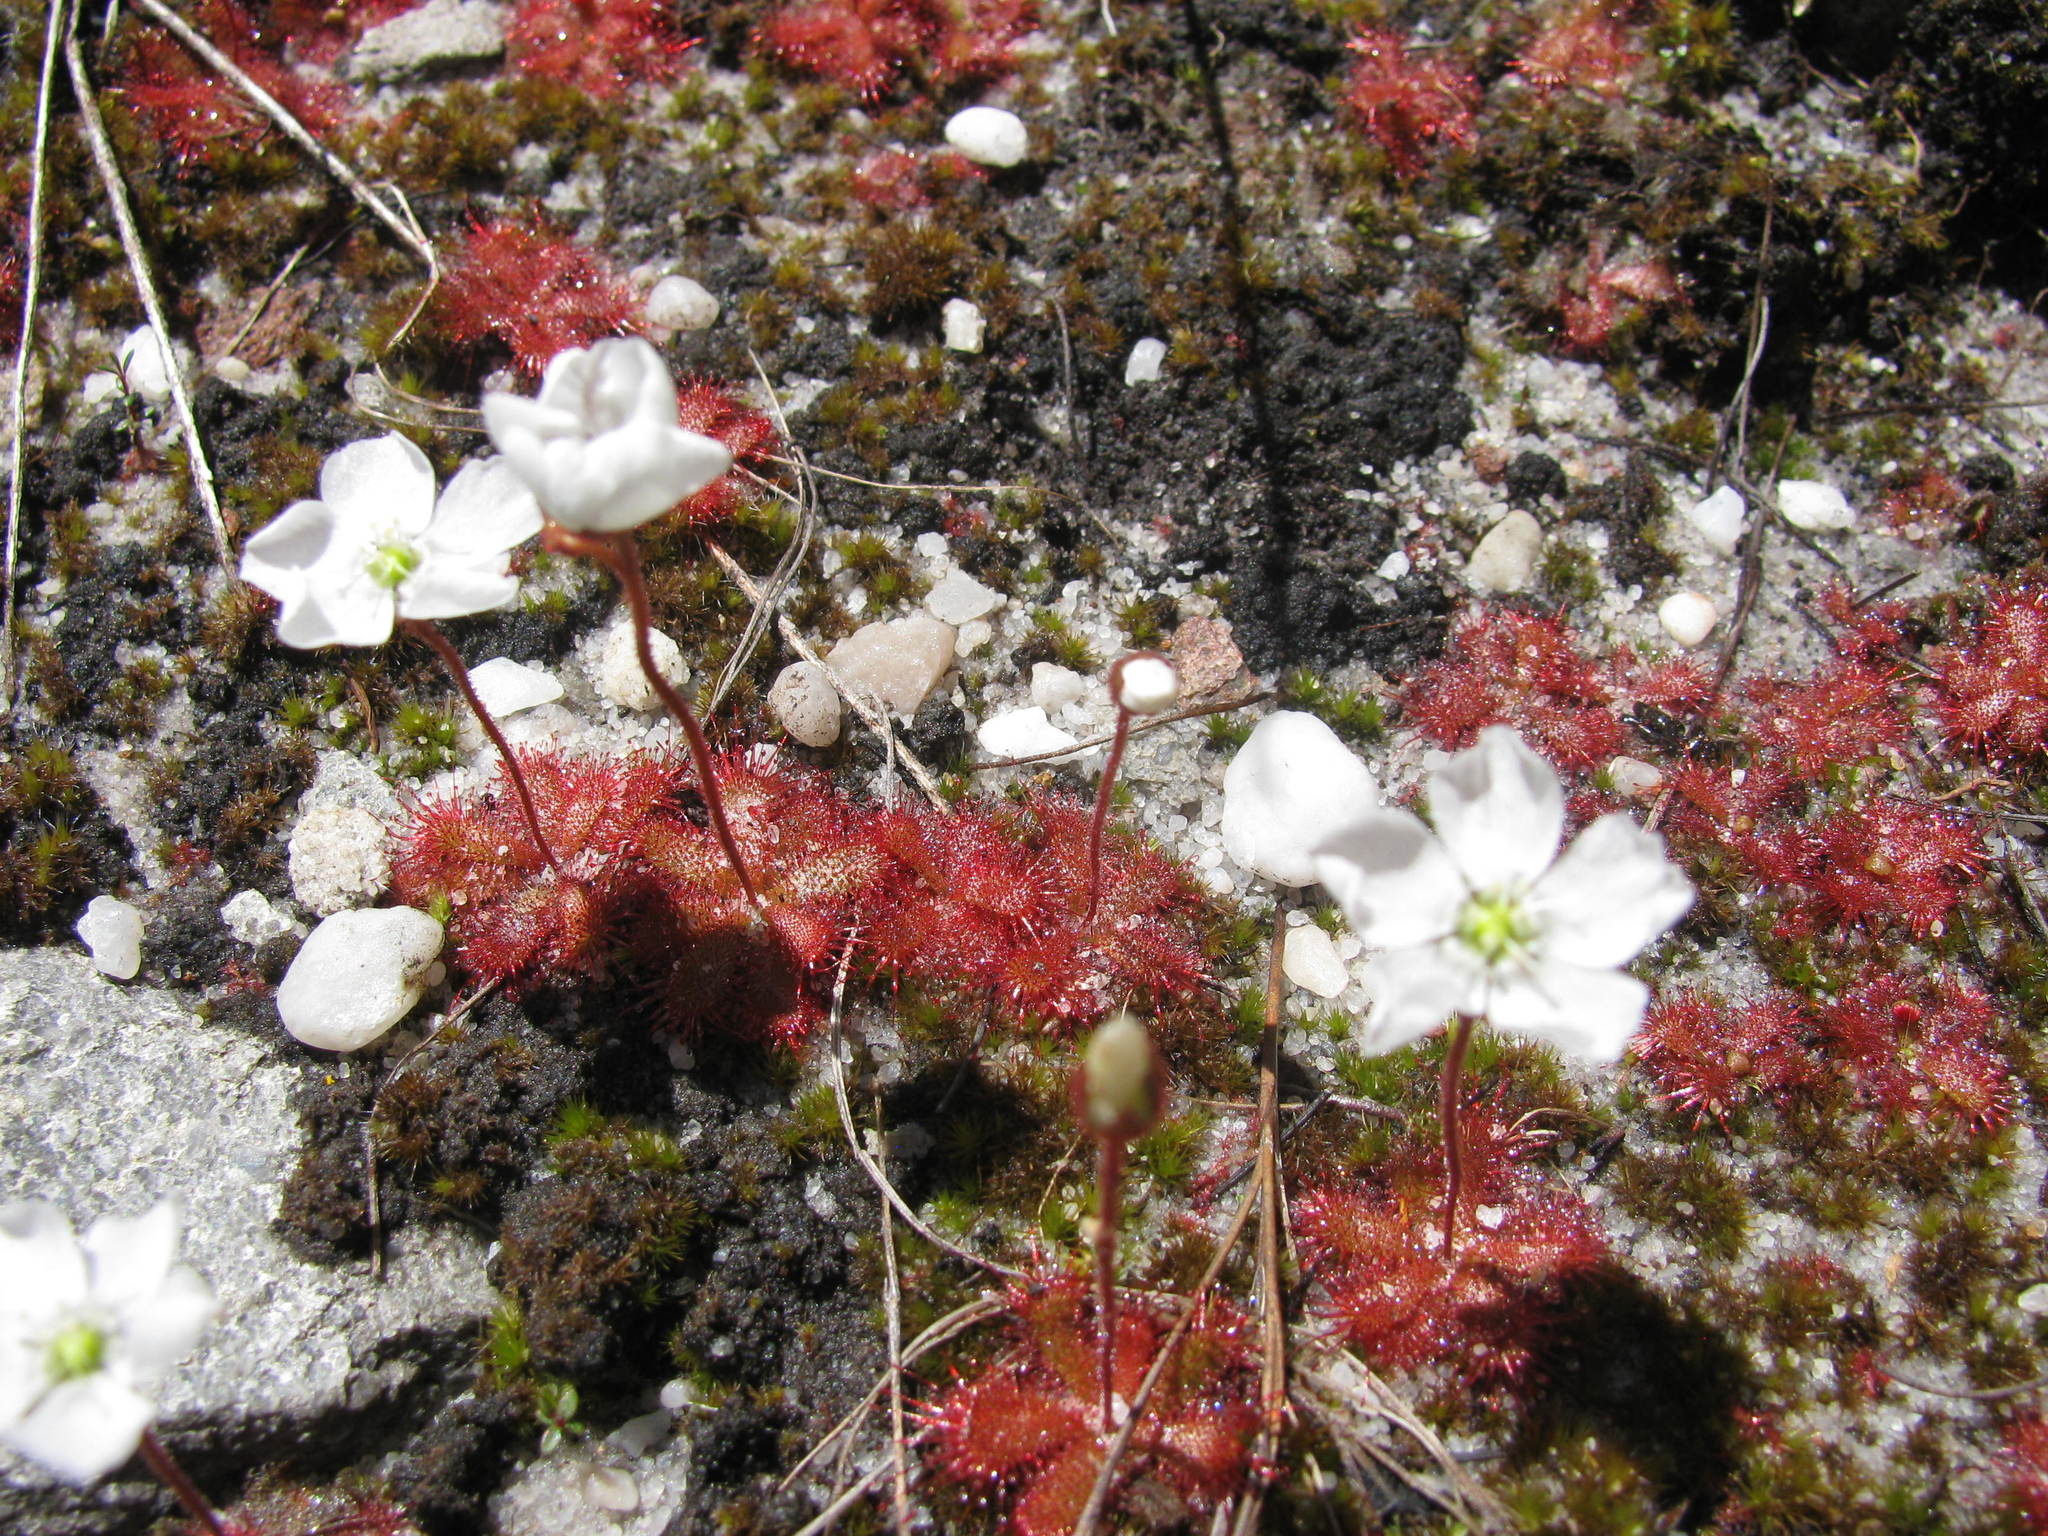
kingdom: Plantae
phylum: Tracheophyta
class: Magnoliopsida
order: Caryophyllales
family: Droseraceae
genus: Drosera
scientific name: Drosera trinervia
